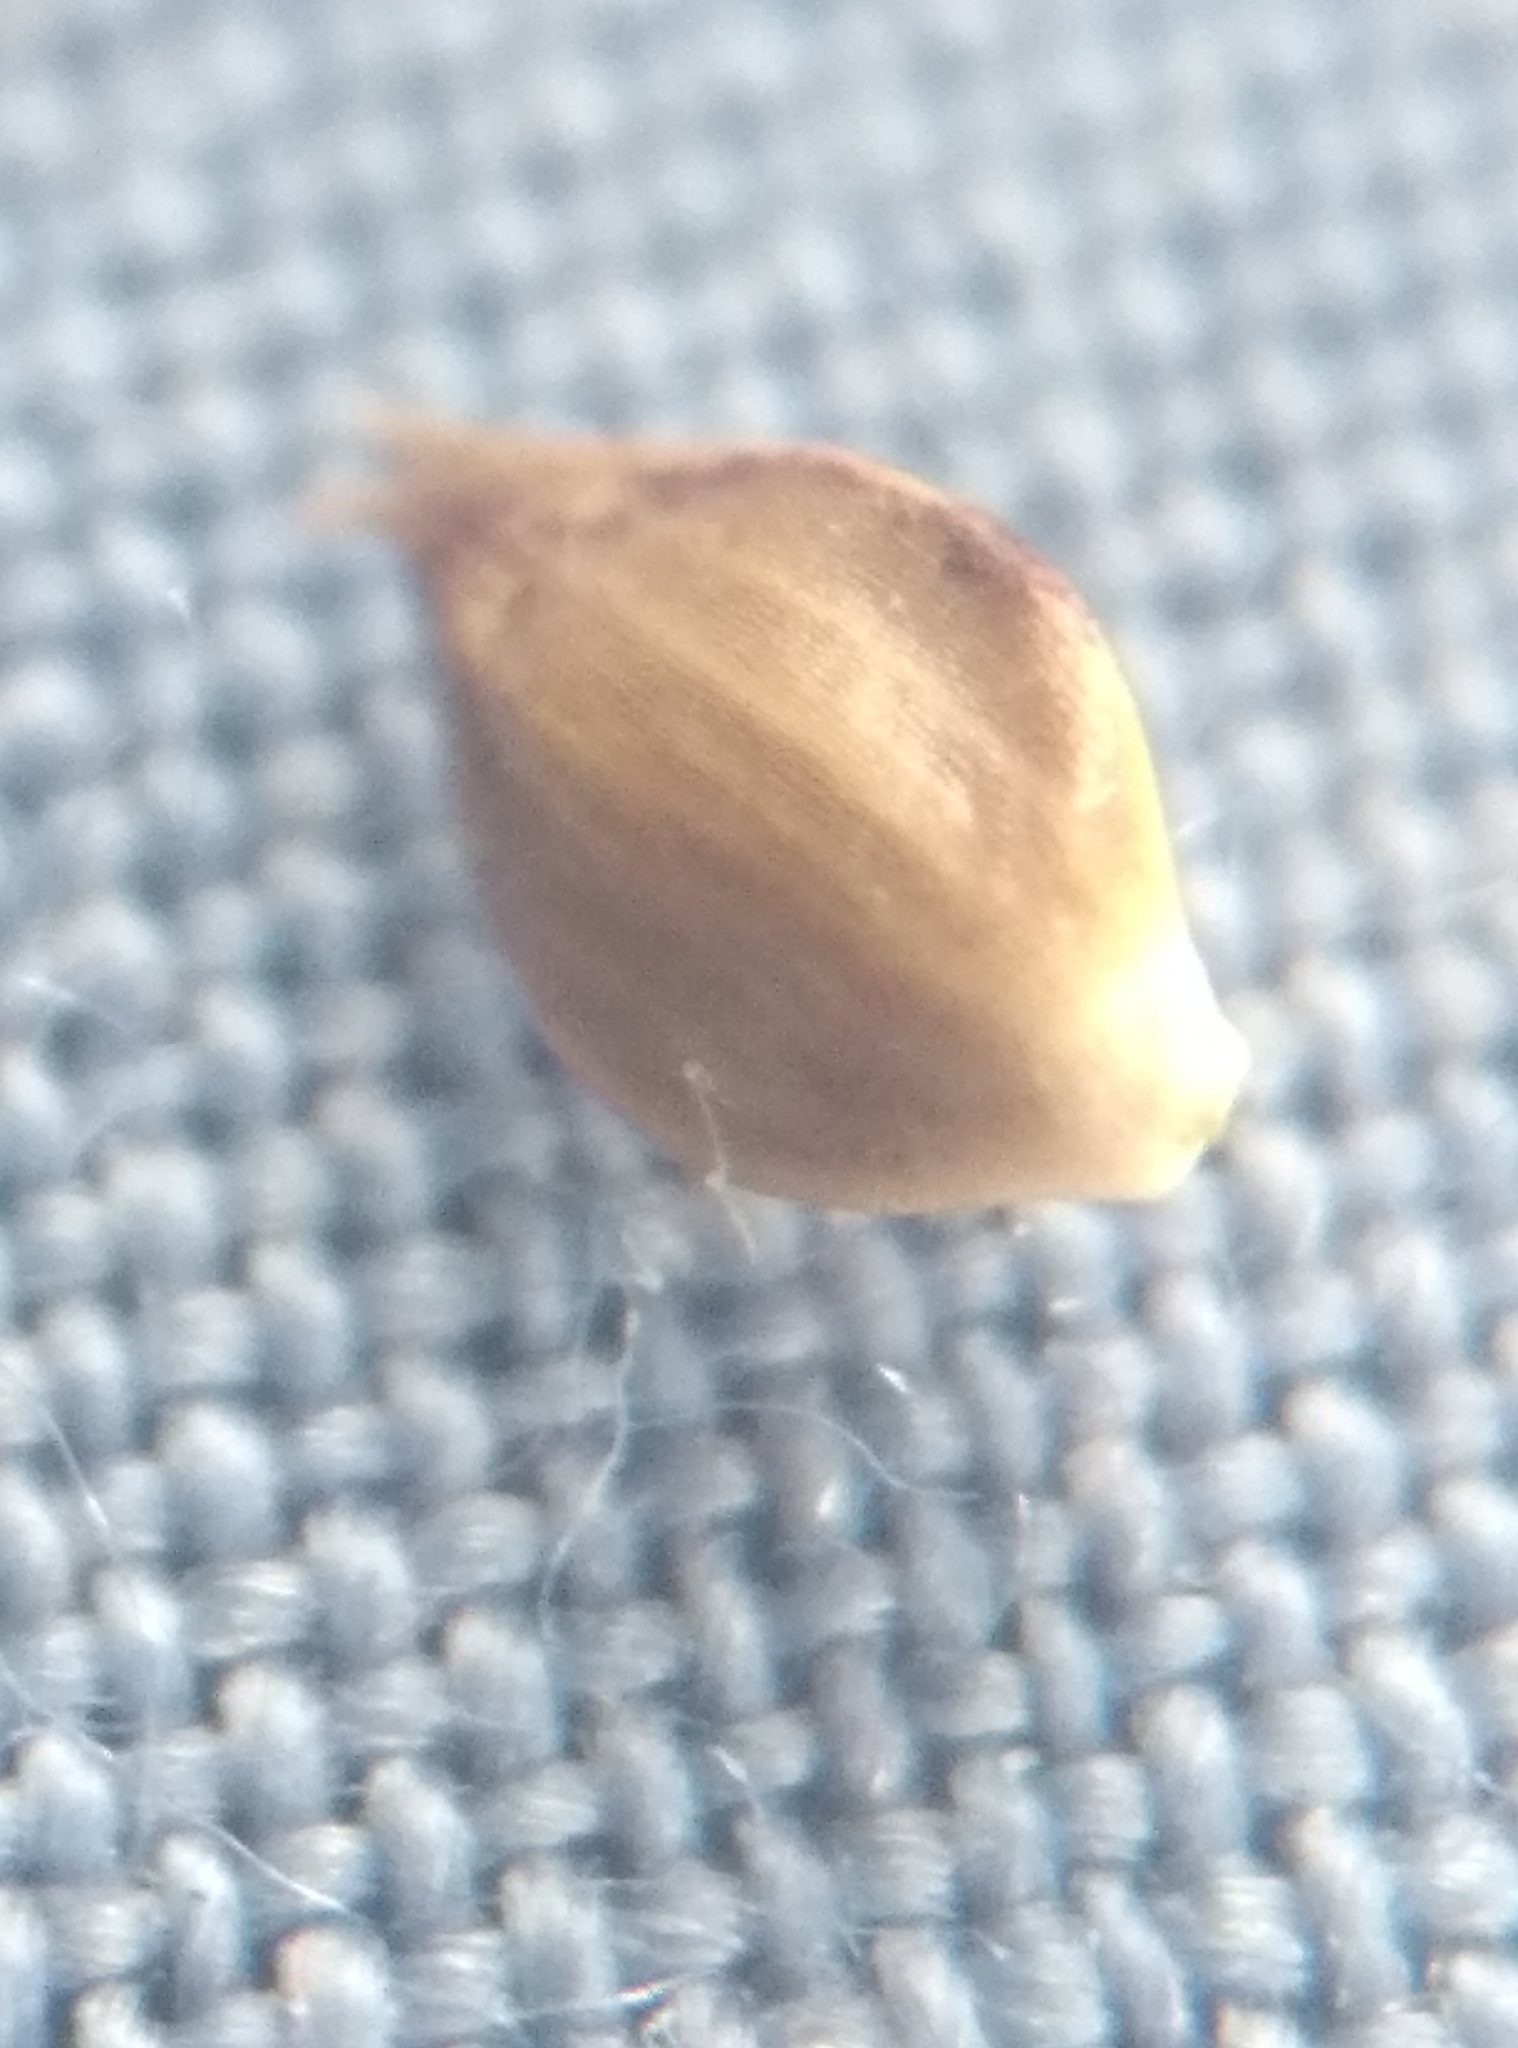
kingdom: Plantae
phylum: Tracheophyta
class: Liliopsida
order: Poales
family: Cyperaceae
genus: Carex
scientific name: Carex dissita
